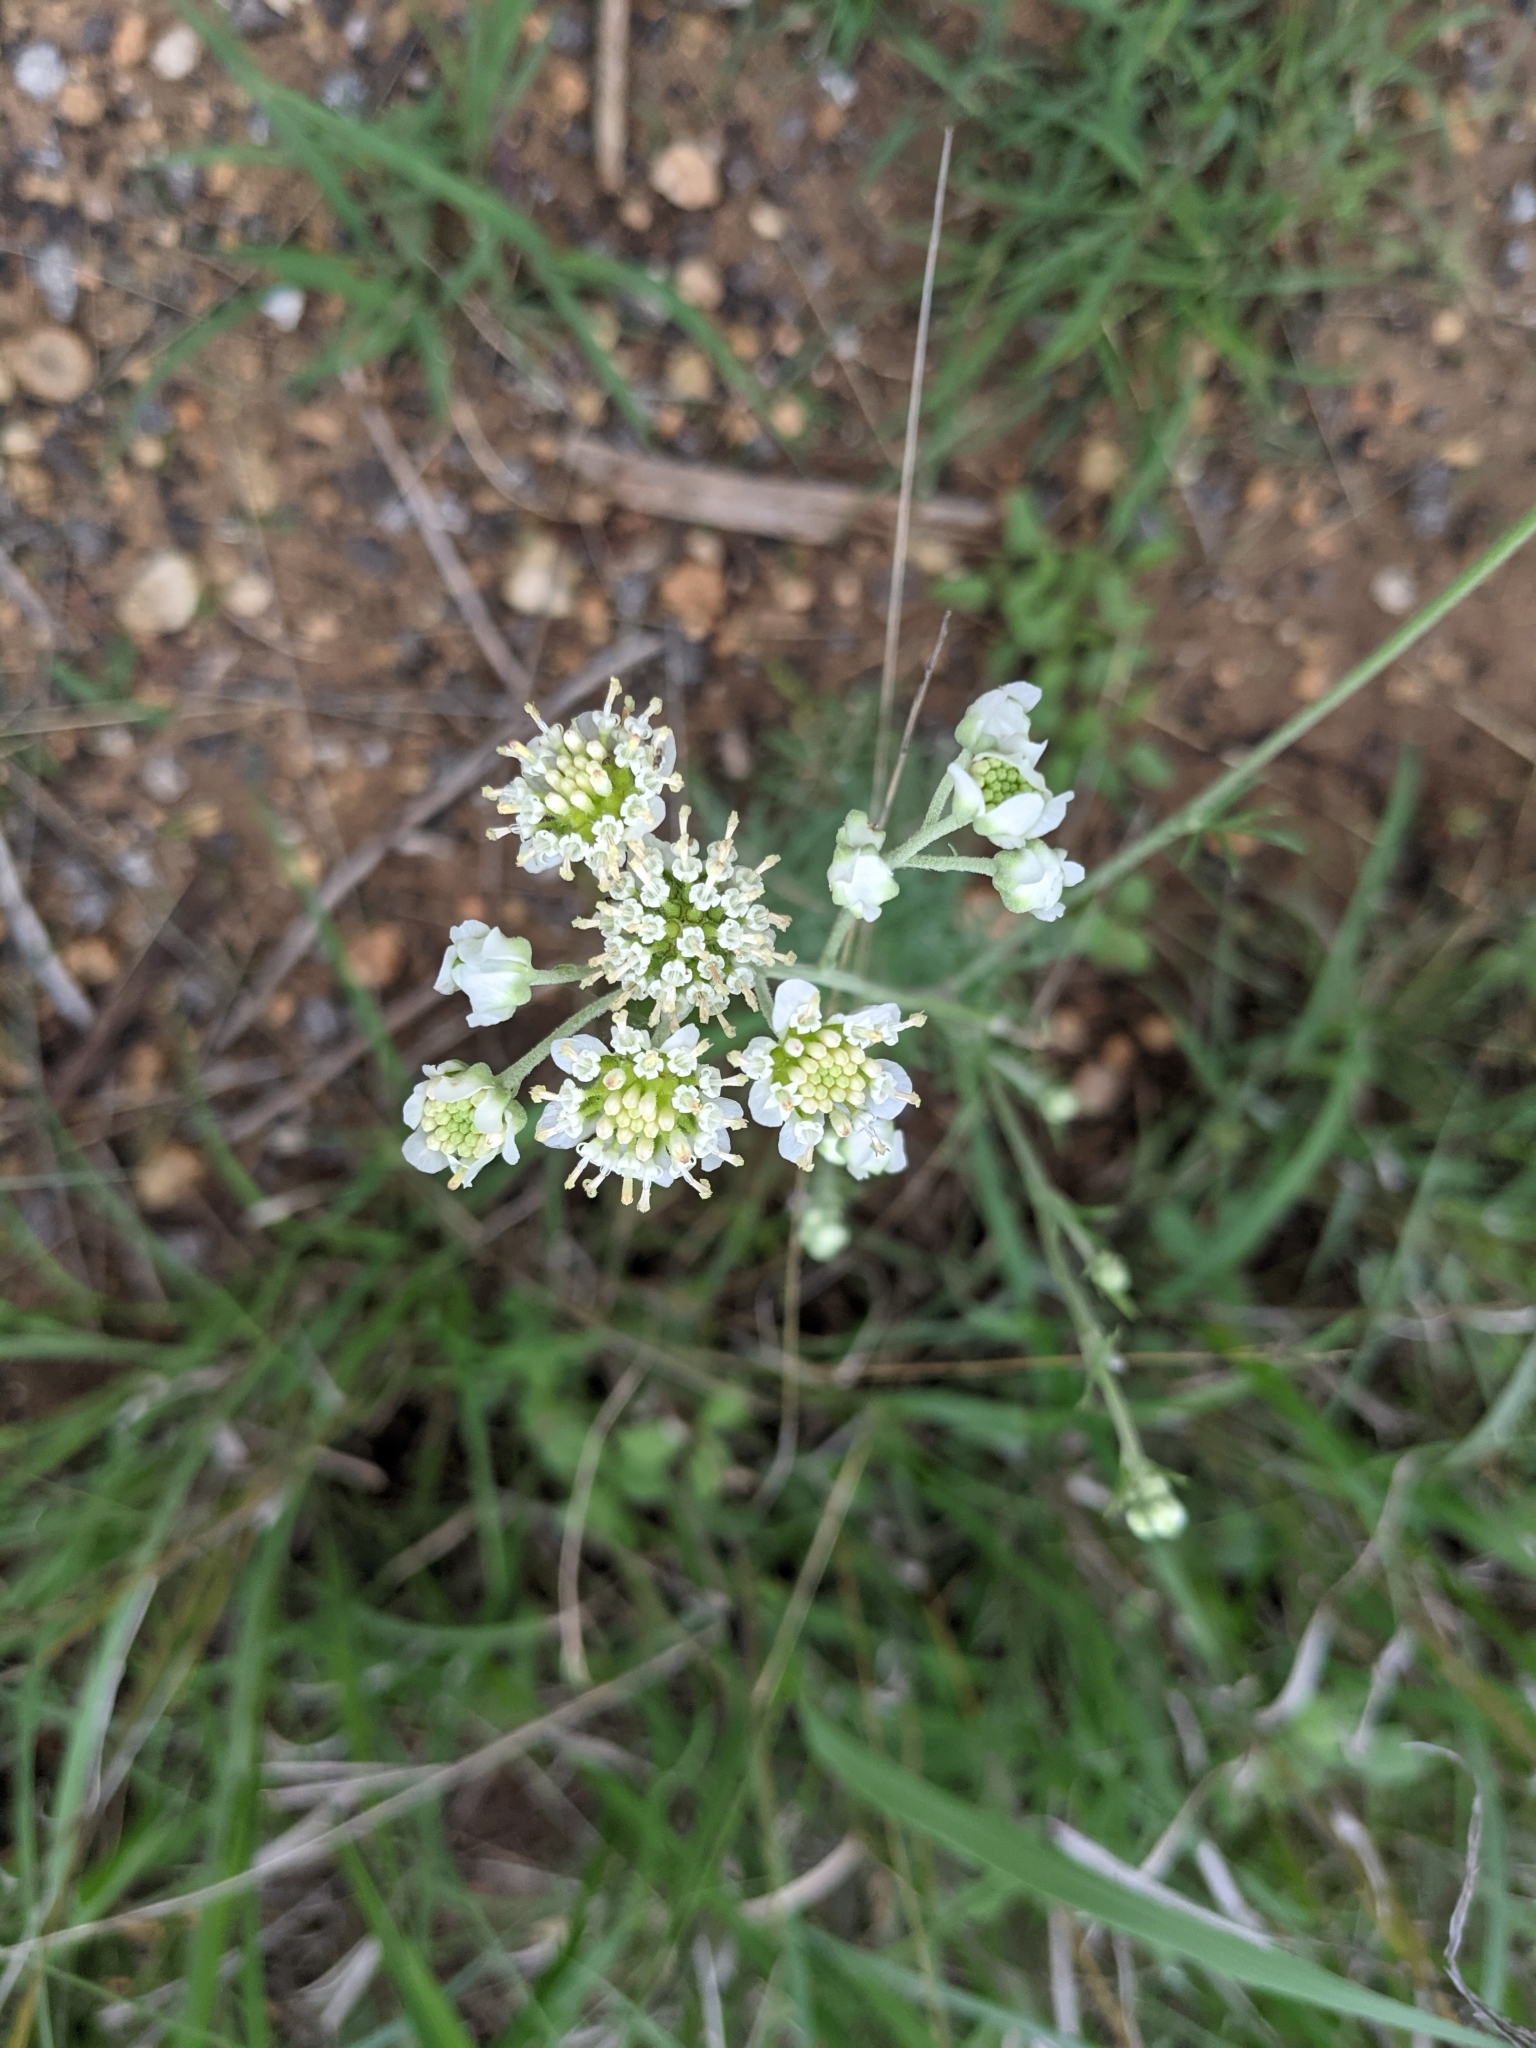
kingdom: Plantae
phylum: Tracheophyta
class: Magnoliopsida
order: Asterales
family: Asteraceae
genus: Hymenopappus
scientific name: Hymenopappus scabiosaeus
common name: Carolina woollywhite
